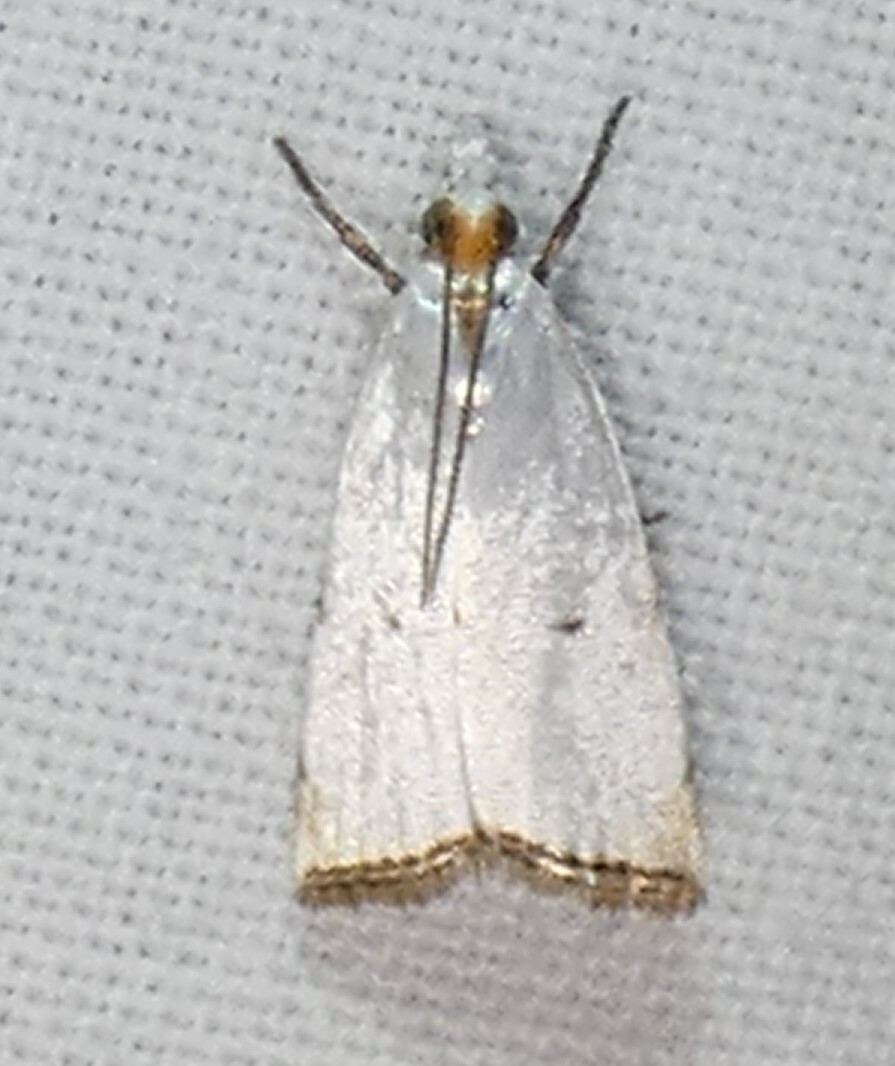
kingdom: Animalia
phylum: Arthropoda
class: Insecta
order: Lepidoptera
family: Crambidae
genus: Argyria
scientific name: Argyria pusillalis
